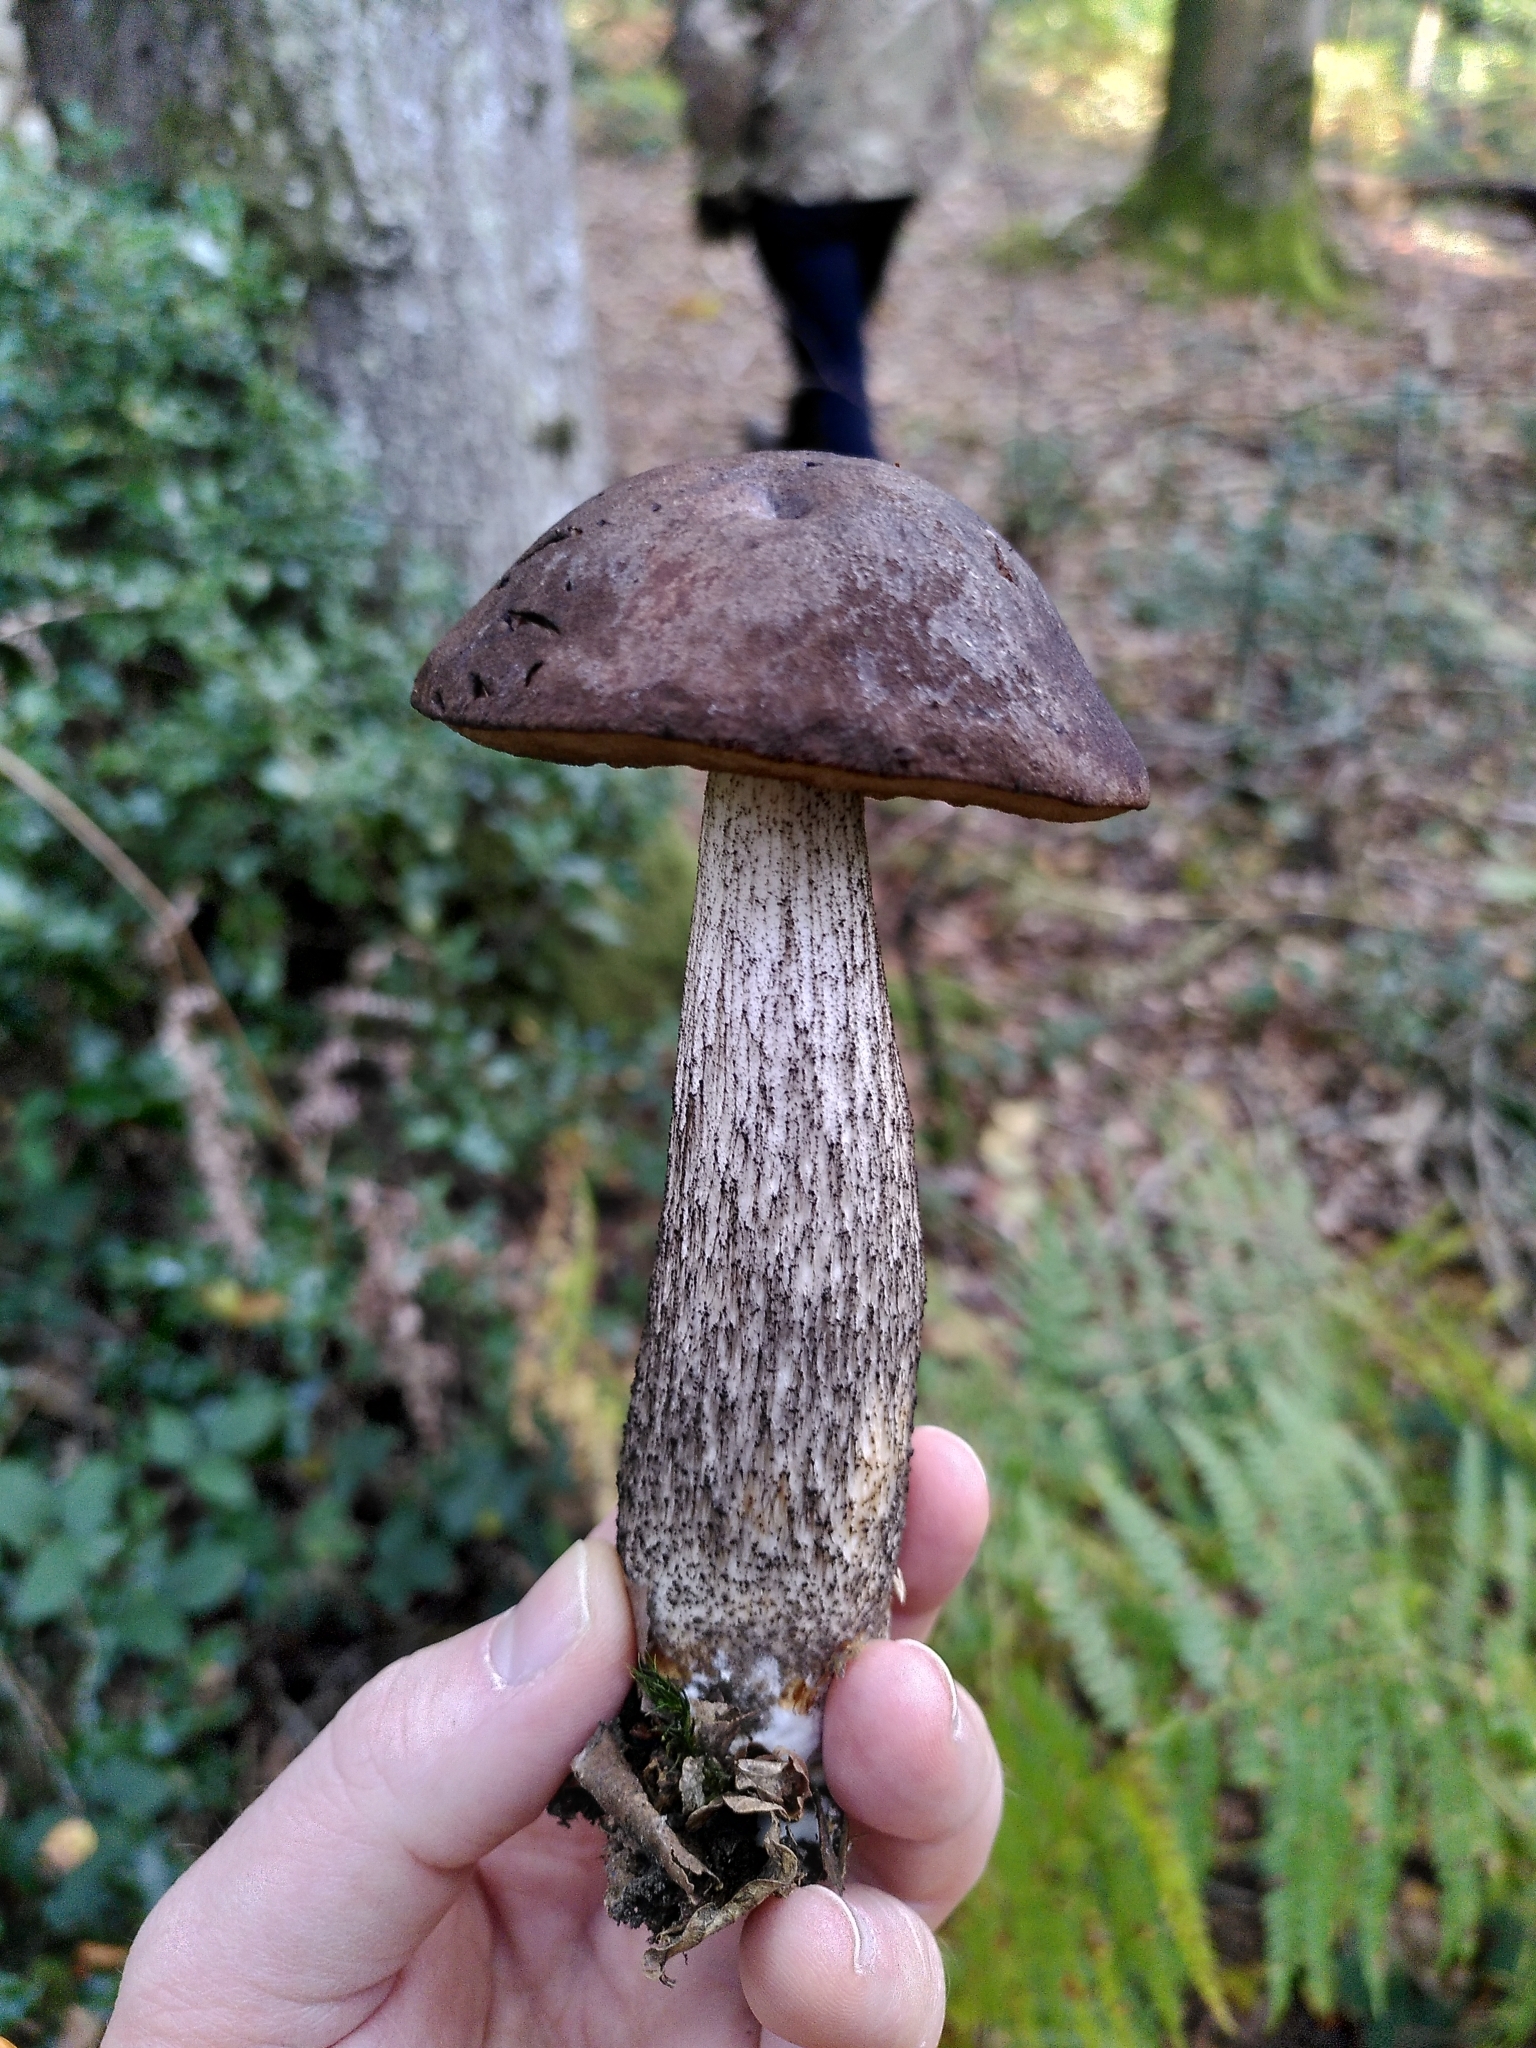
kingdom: Fungi
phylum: Basidiomycota
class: Agaricomycetes
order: Boletales
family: Boletaceae
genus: Leccinum
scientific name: Leccinum scabrum
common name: Blushing bolete
